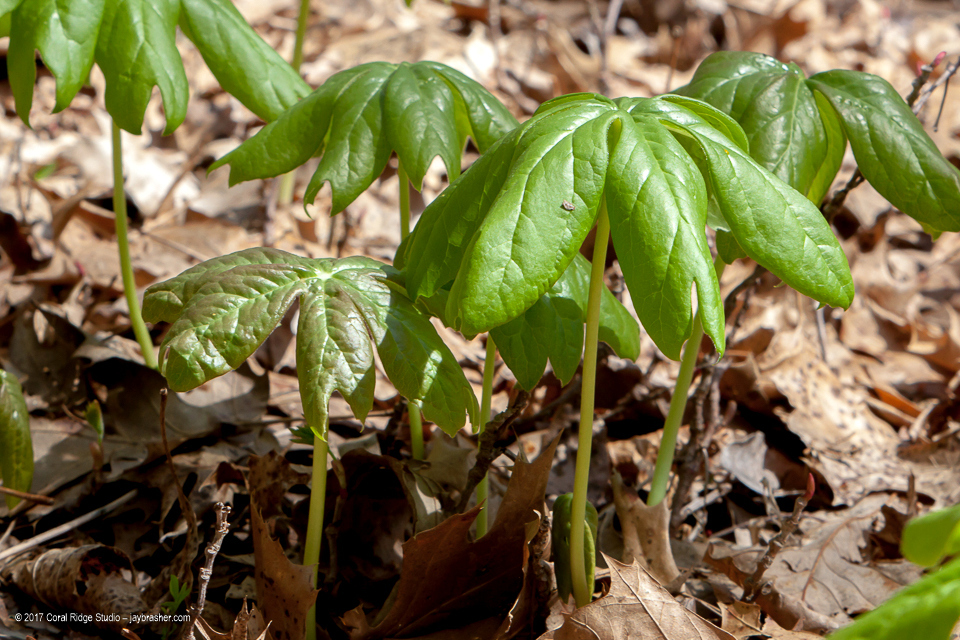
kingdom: Plantae
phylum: Tracheophyta
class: Magnoliopsida
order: Ranunculales
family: Berberidaceae
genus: Podophyllum
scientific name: Podophyllum peltatum
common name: Wild mandrake
